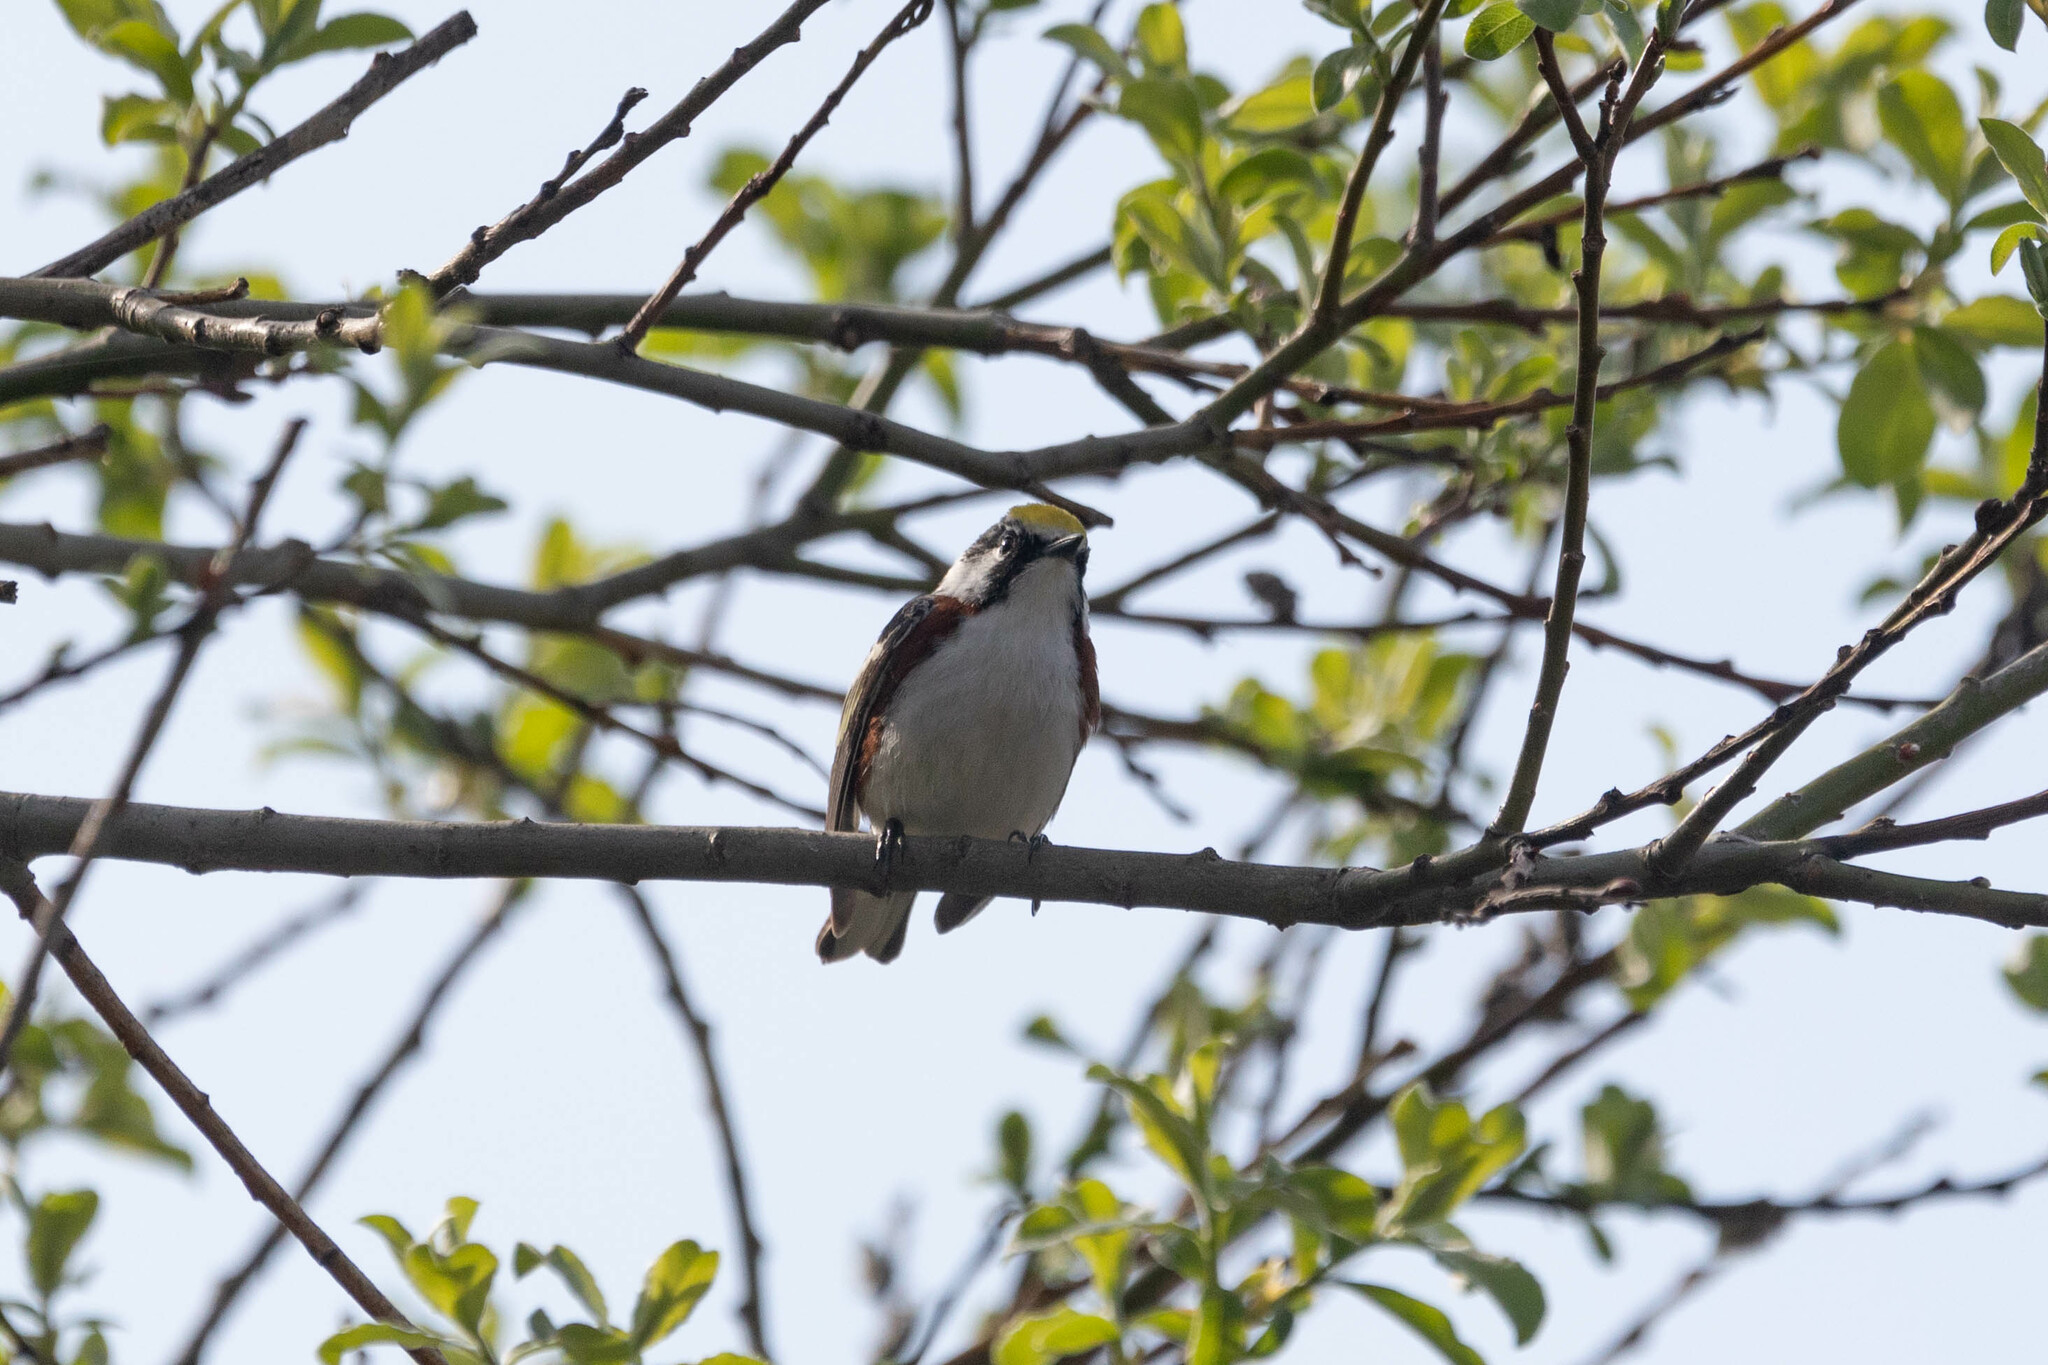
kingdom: Animalia
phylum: Chordata
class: Aves
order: Passeriformes
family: Parulidae
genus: Setophaga
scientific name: Setophaga pensylvanica
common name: Chestnut-sided warbler
